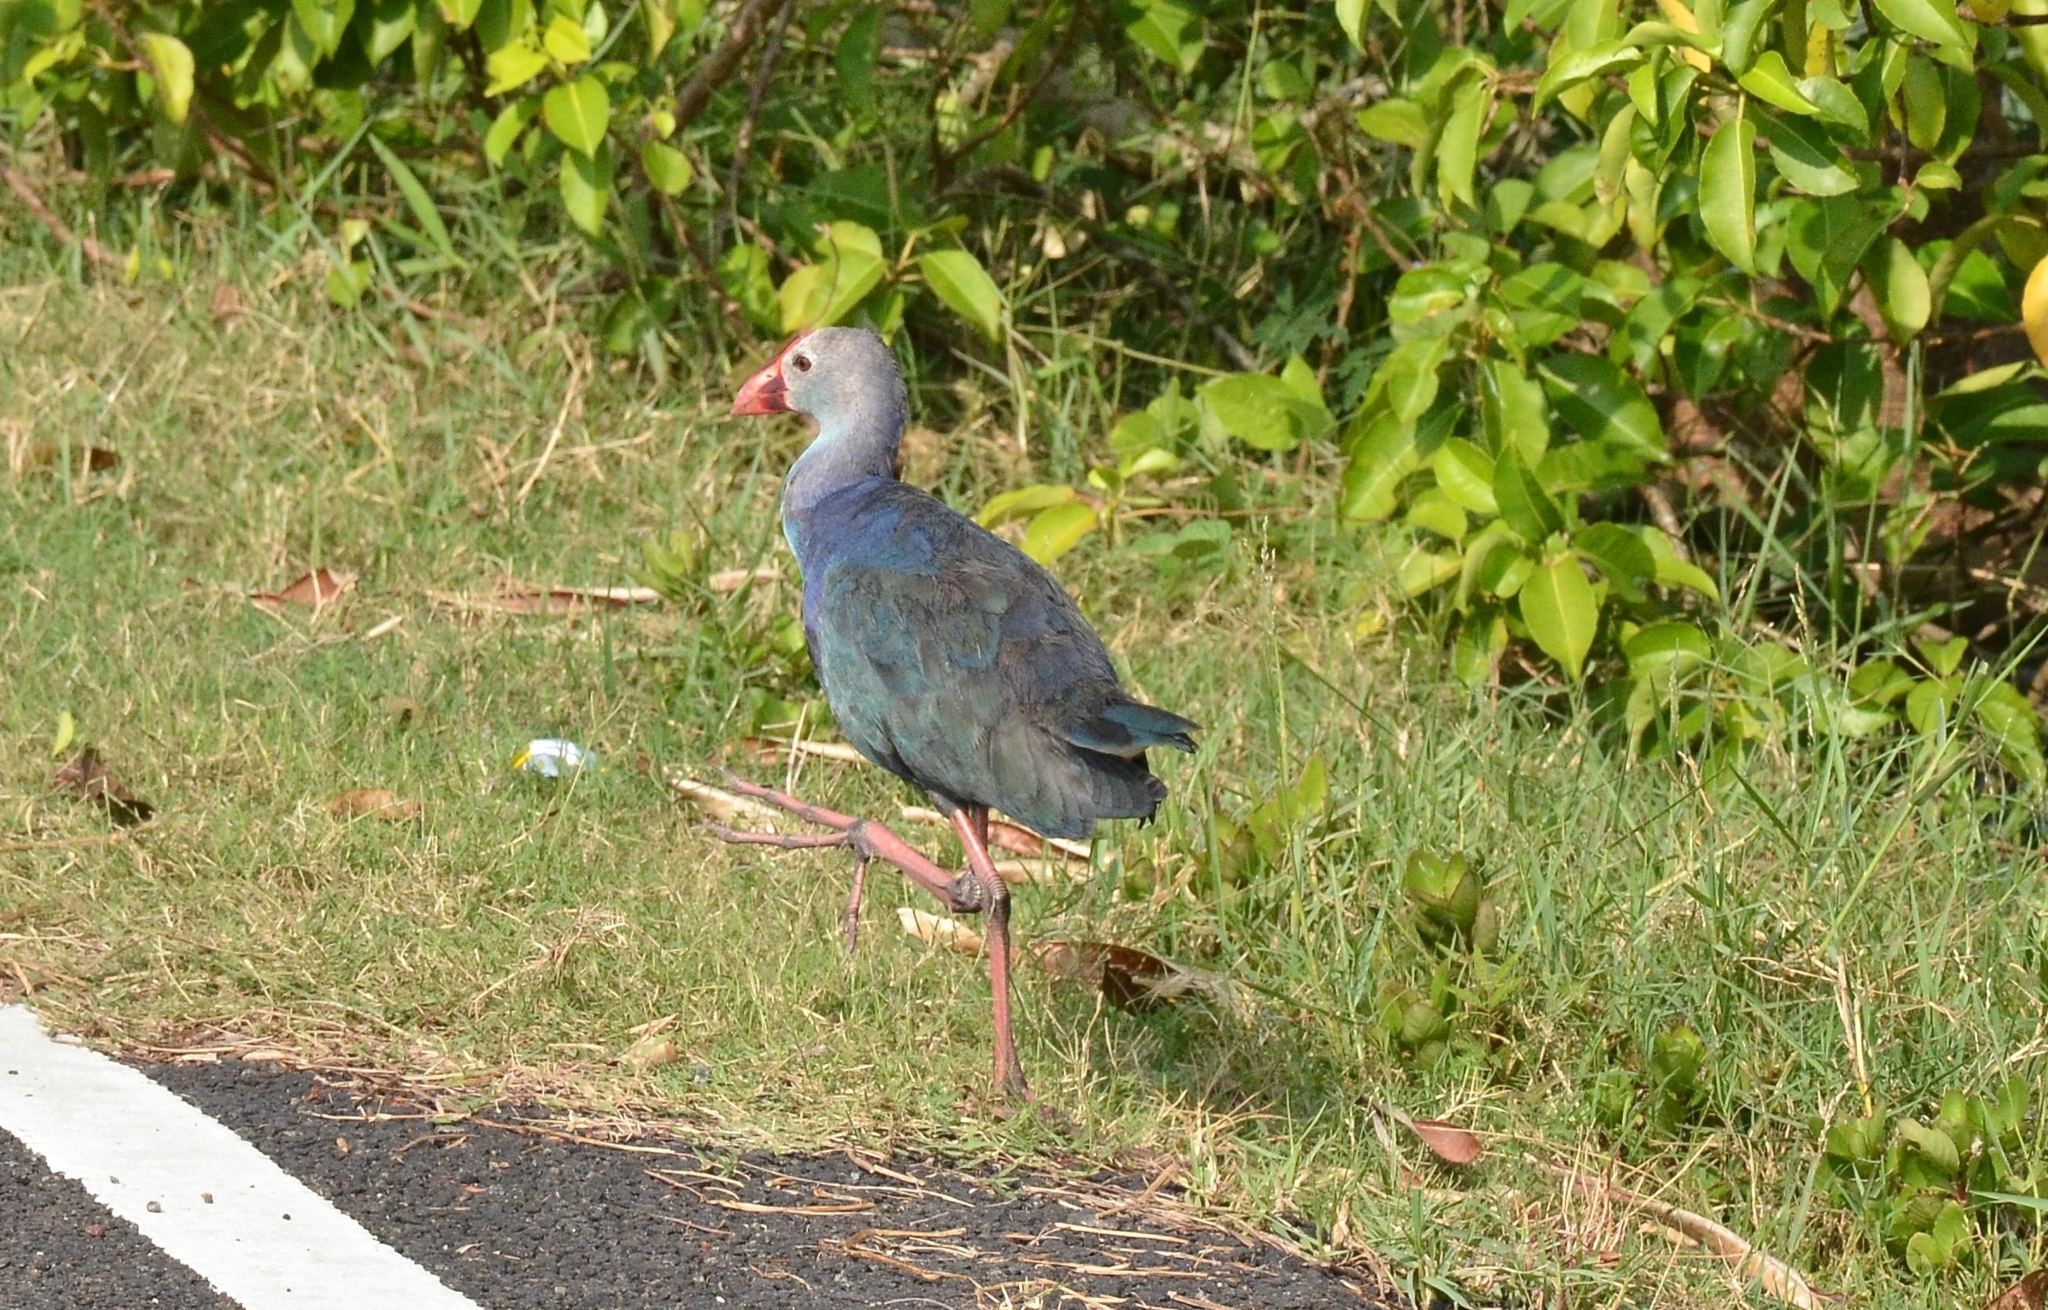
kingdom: Animalia
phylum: Chordata
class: Aves
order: Gruiformes
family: Rallidae
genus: Porphyrio
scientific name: Porphyrio porphyrio
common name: Purple swamphen
